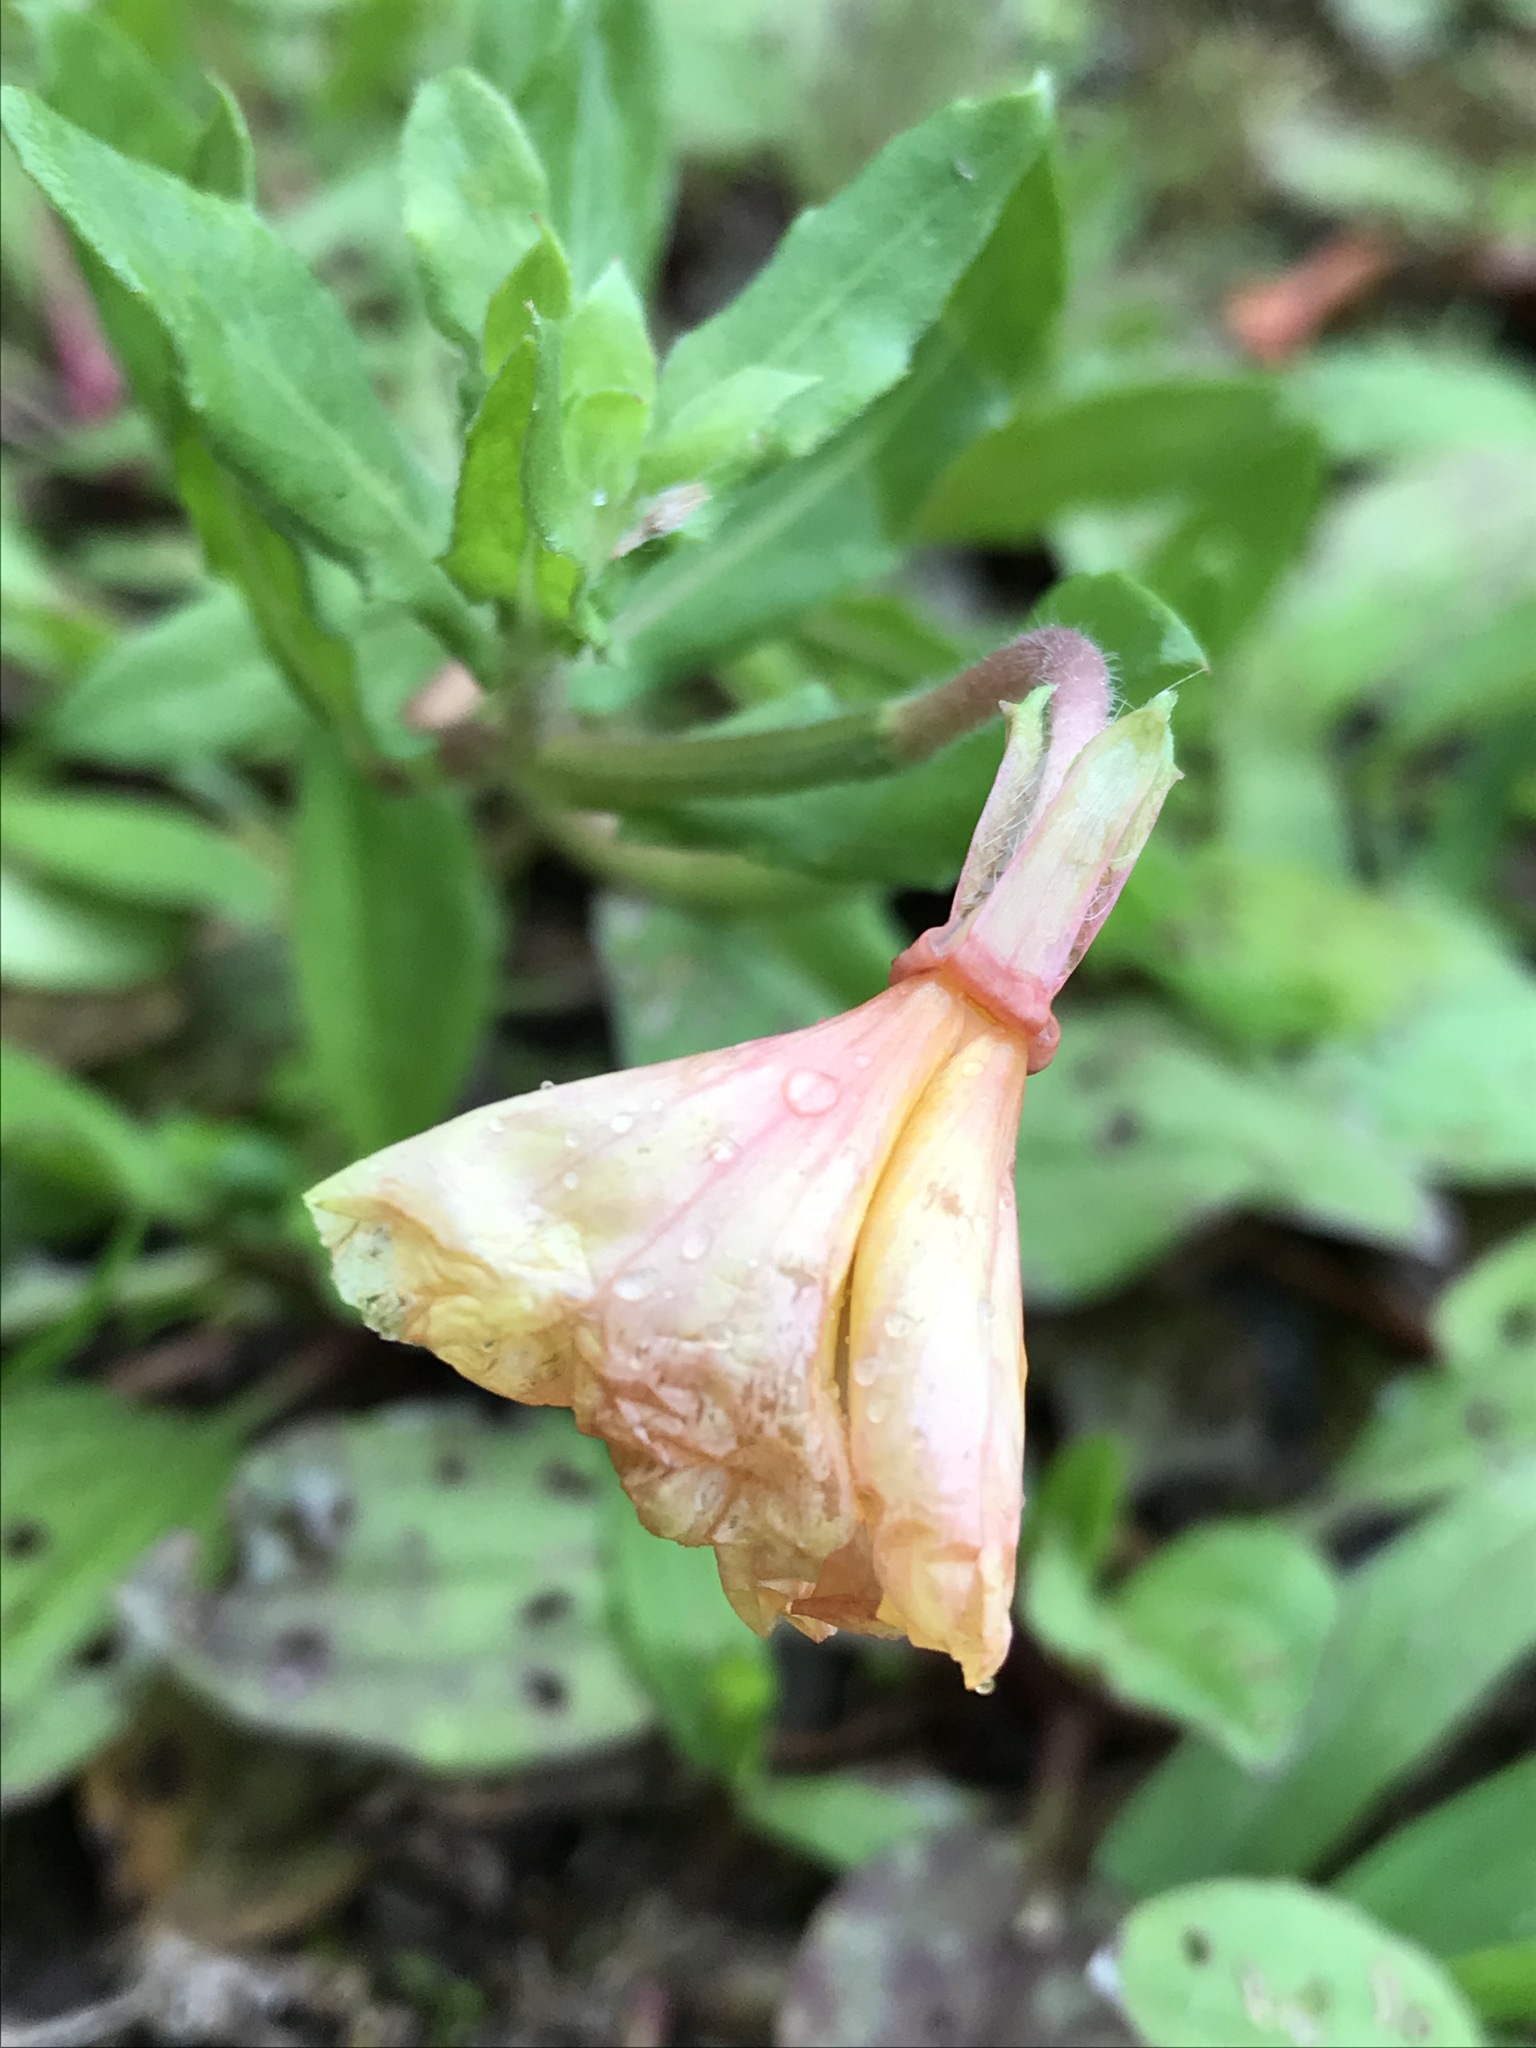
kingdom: Plantae
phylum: Tracheophyta
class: Magnoliopsida
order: Myrtales
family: Onagraceae
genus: Oenothera
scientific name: Oenothera laciniata
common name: Cut-leaved evening-primrose
